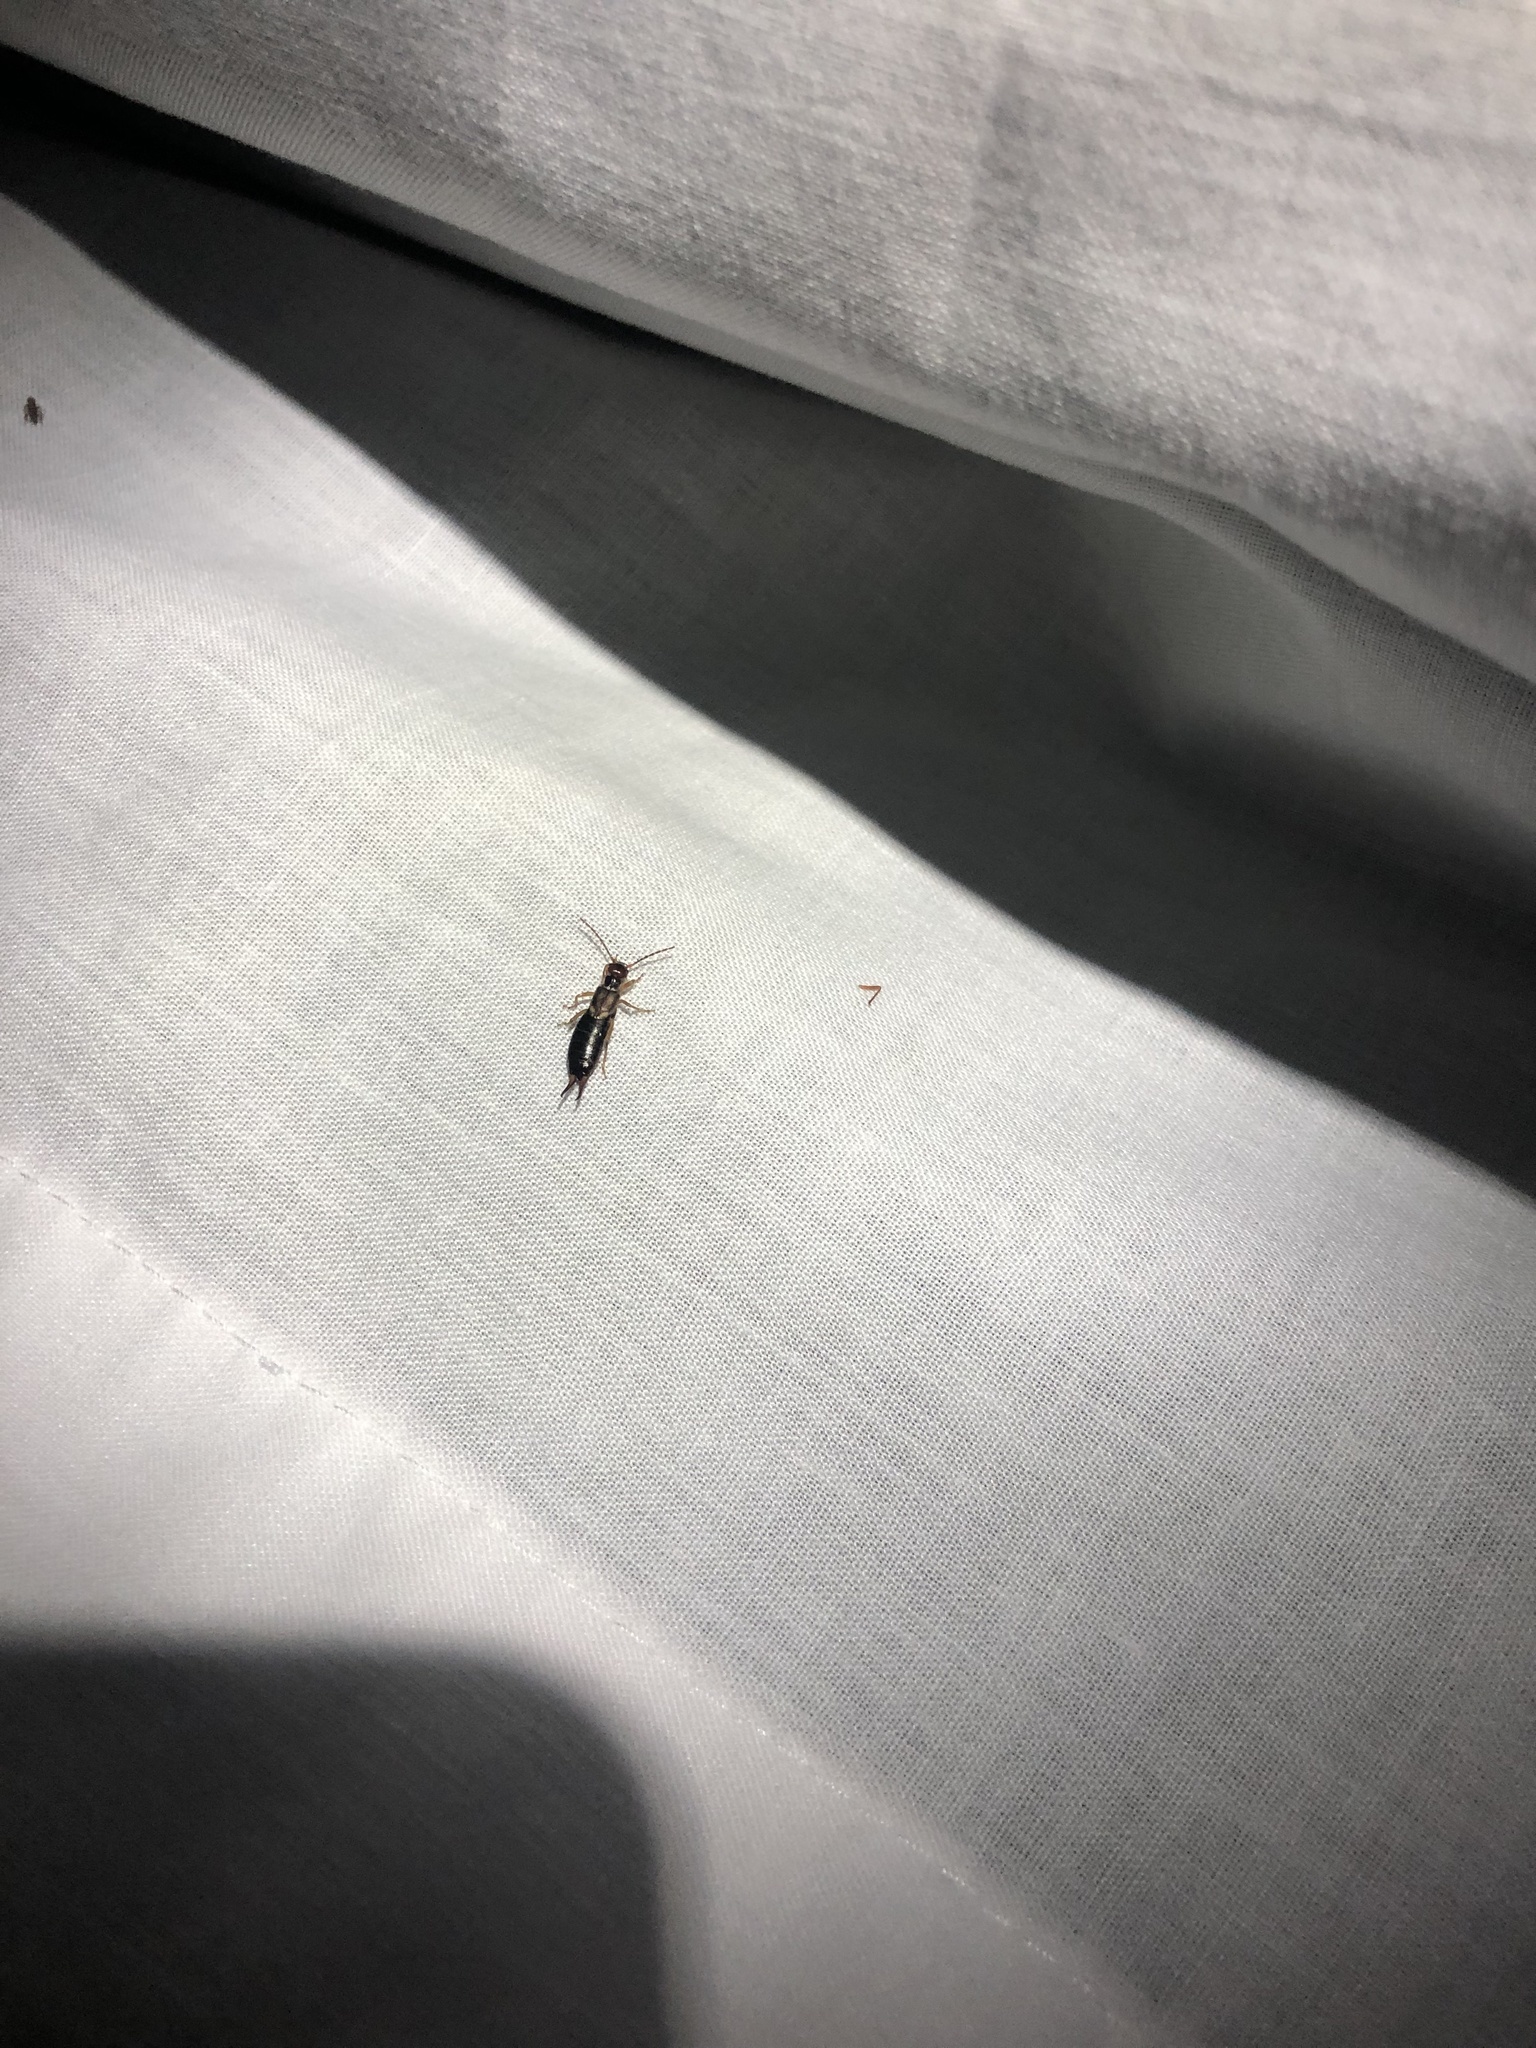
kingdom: Animalia
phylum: Arthropoda
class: Insecta
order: Dermaptera
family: Forficulidae
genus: Forficula
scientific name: Forficula
